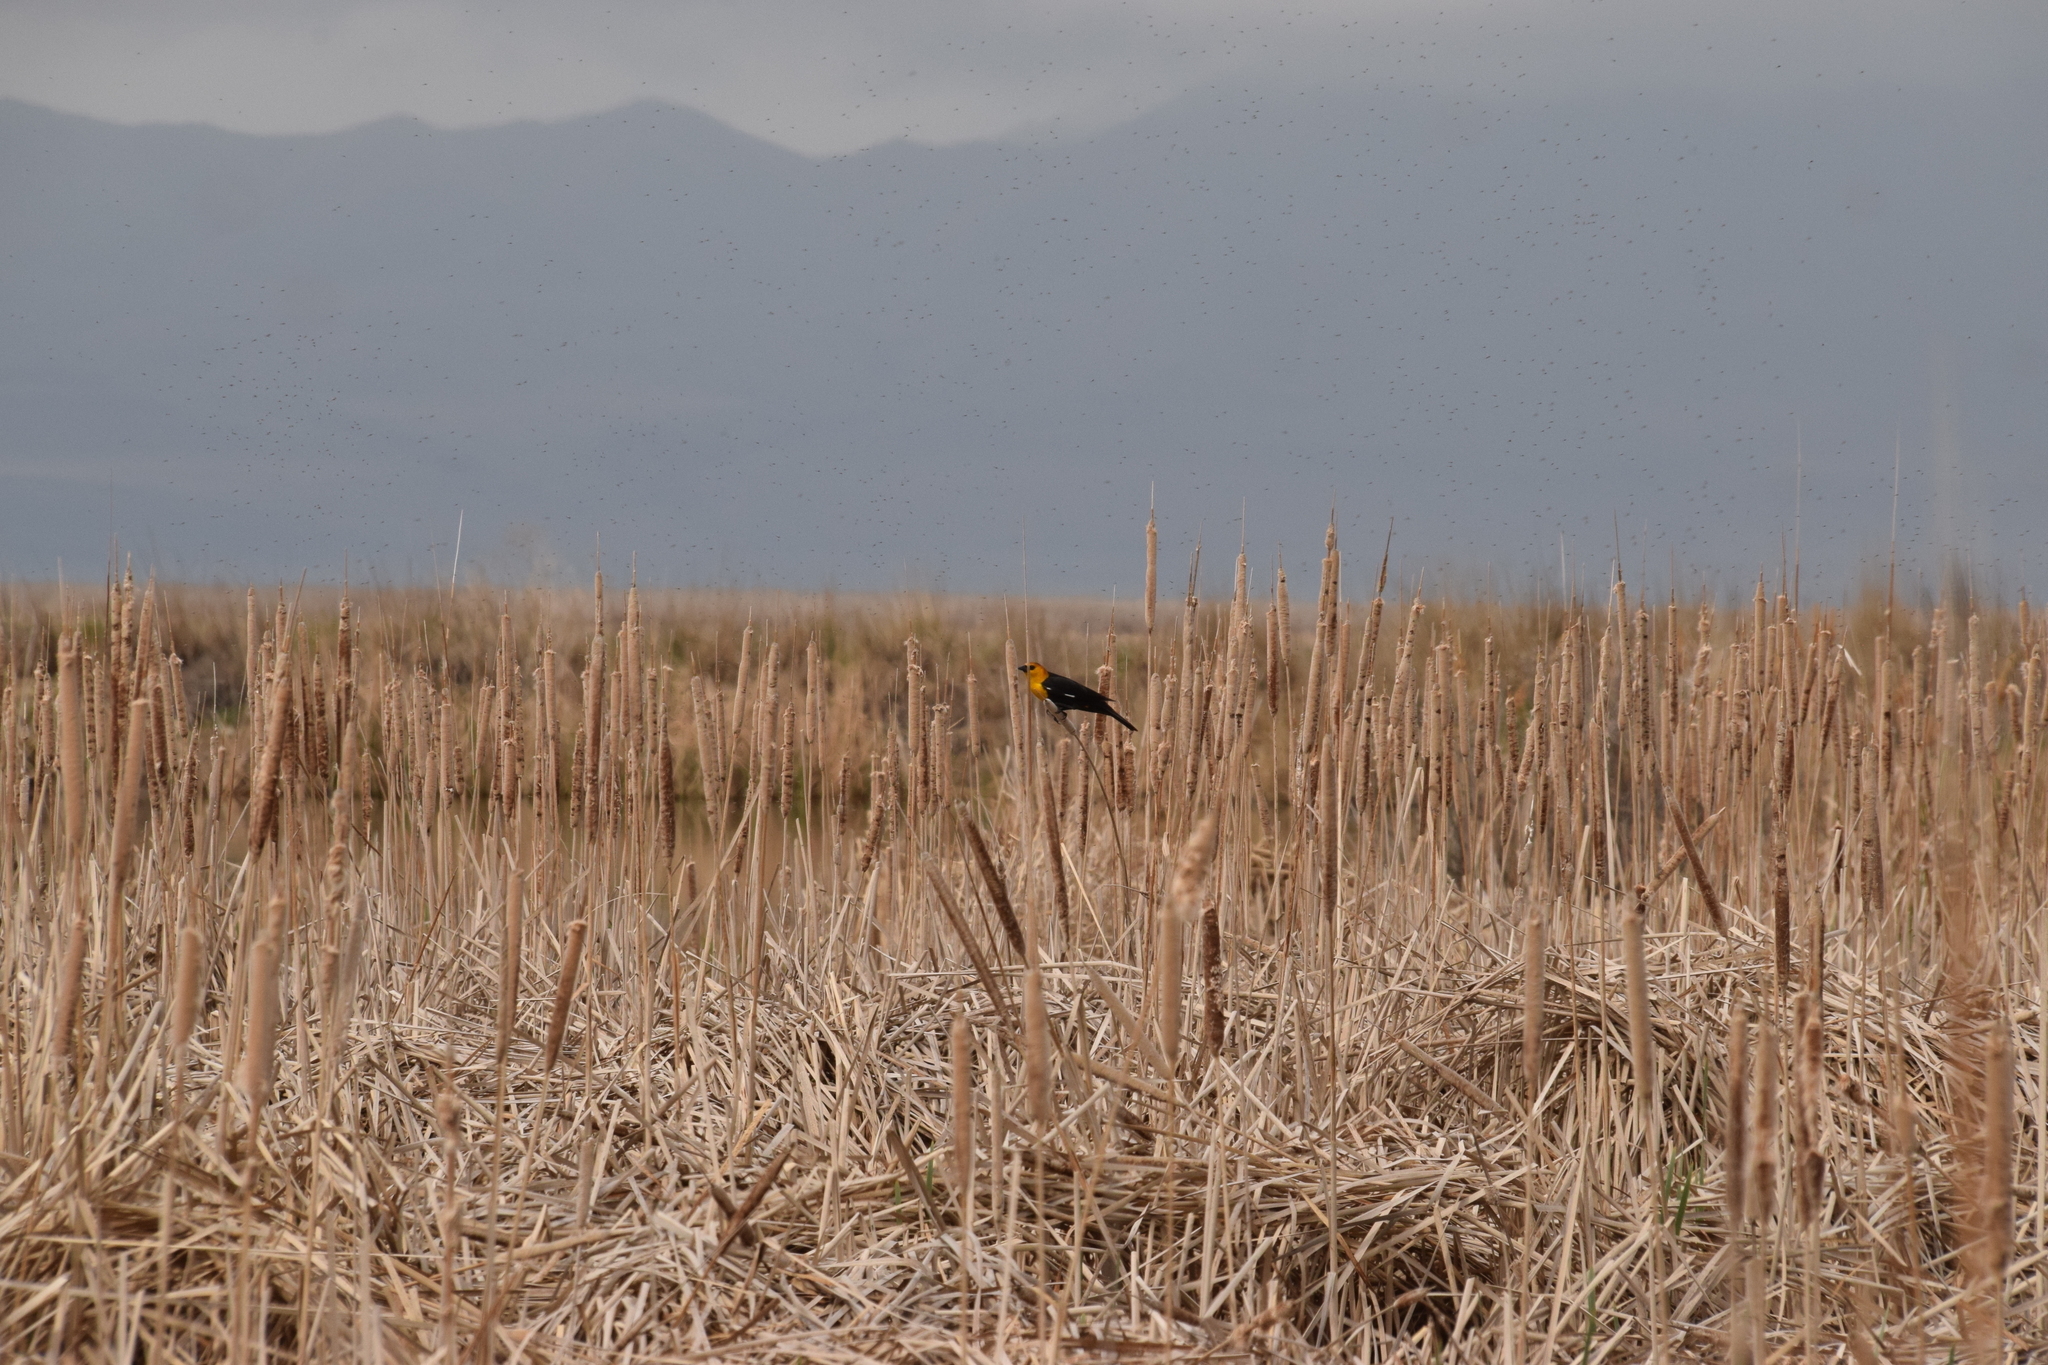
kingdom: Animalia
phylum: Chordata
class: Aves
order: Passeriformes
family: Icteridae
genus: Xanthocephalus
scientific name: Xanthocephalus xanthocephalus
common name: Yellow-headed blackbird
